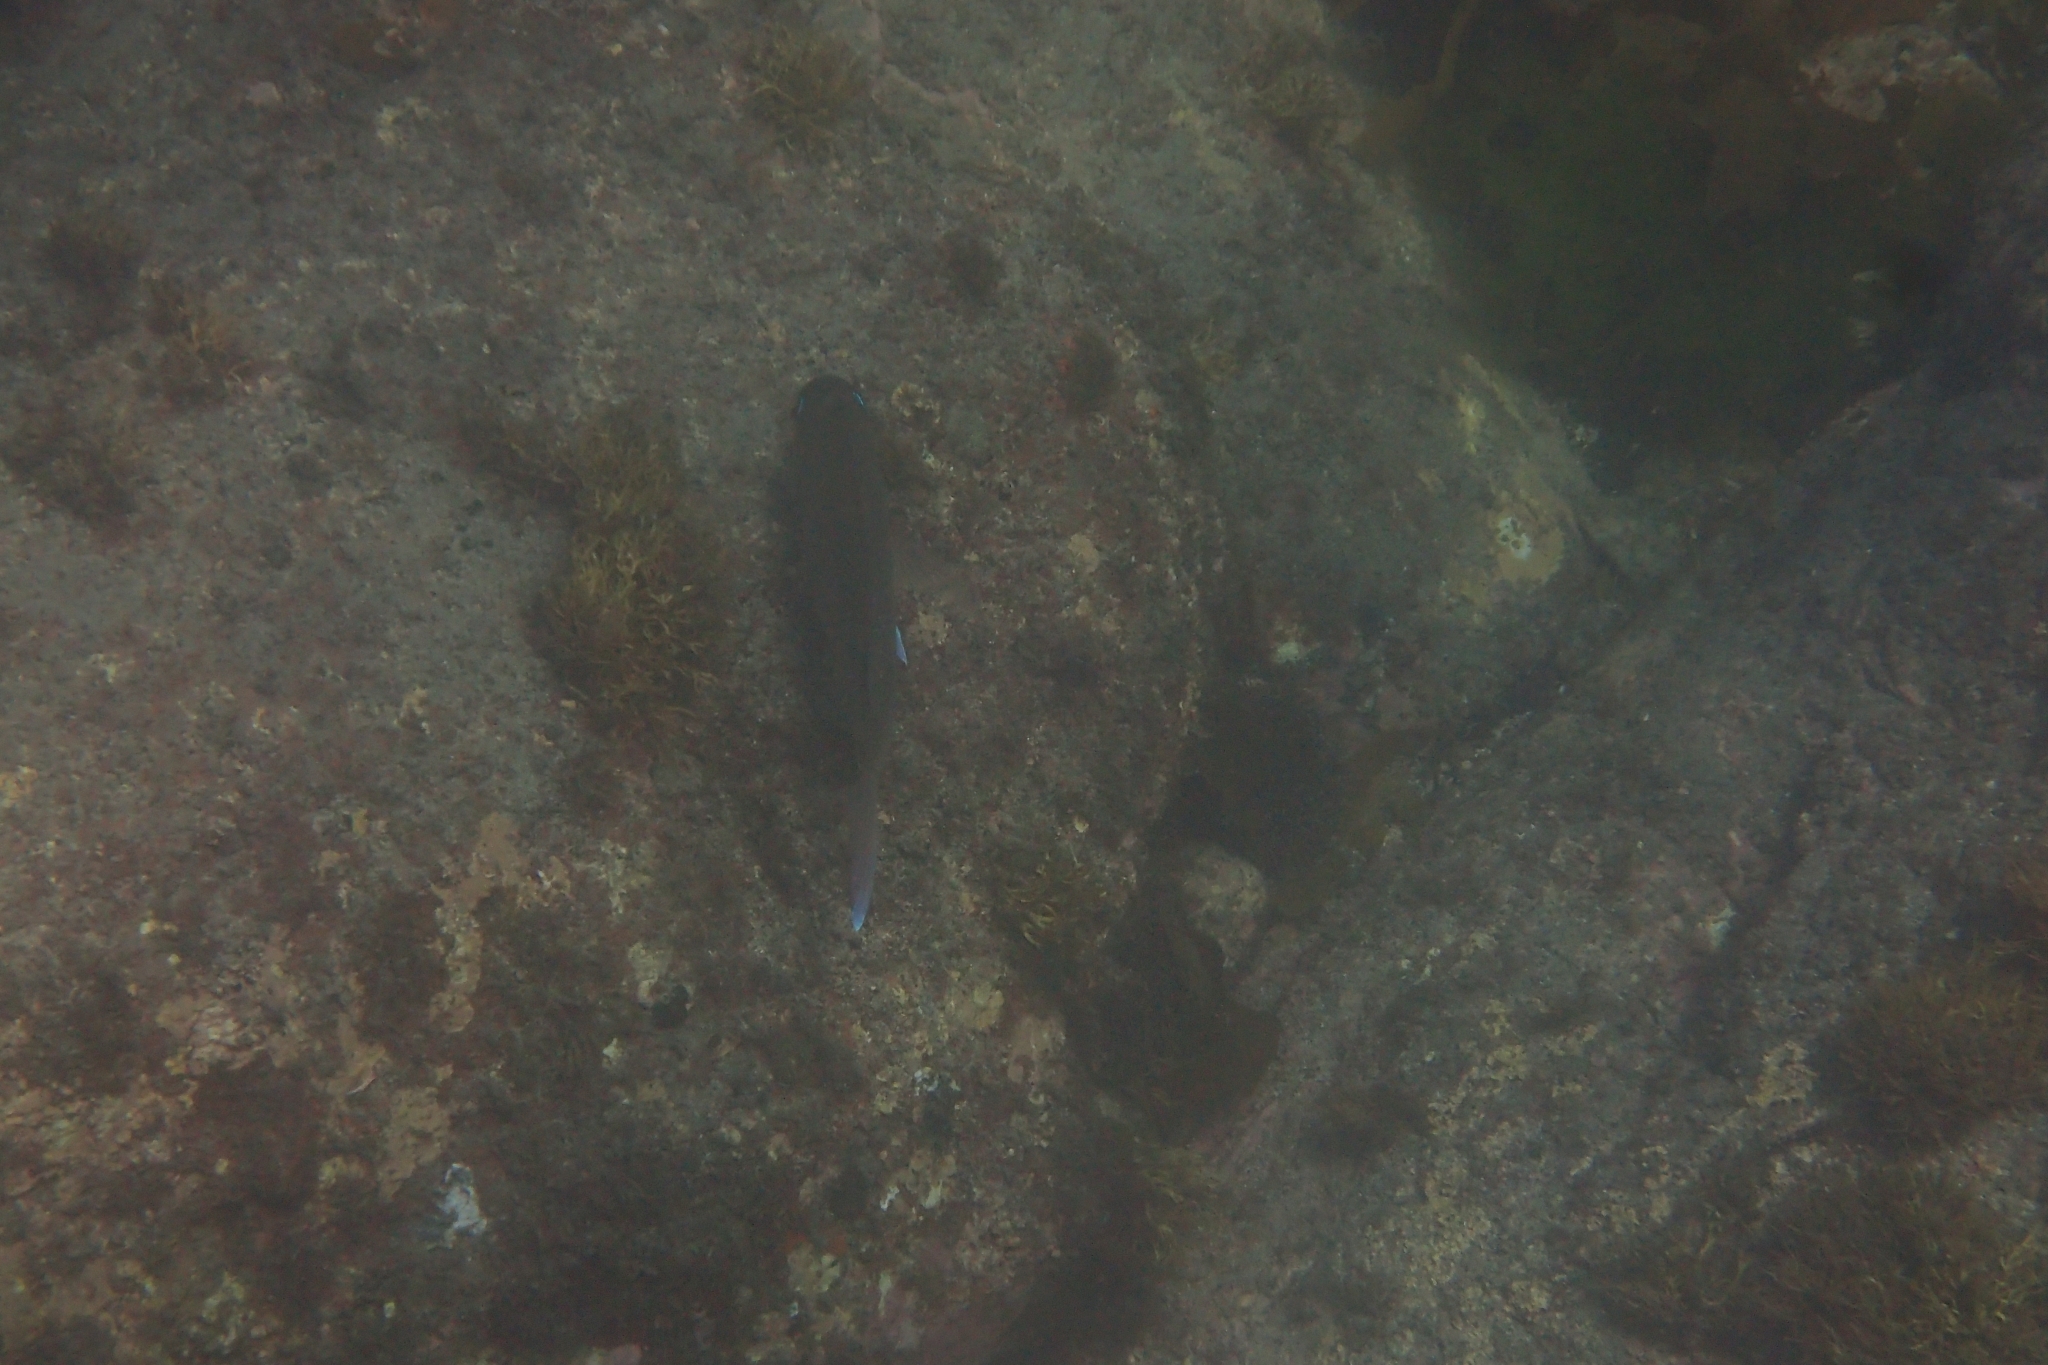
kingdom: Animalia
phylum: Chordata
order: Perciformes
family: Sparidae
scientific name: Sparidae
